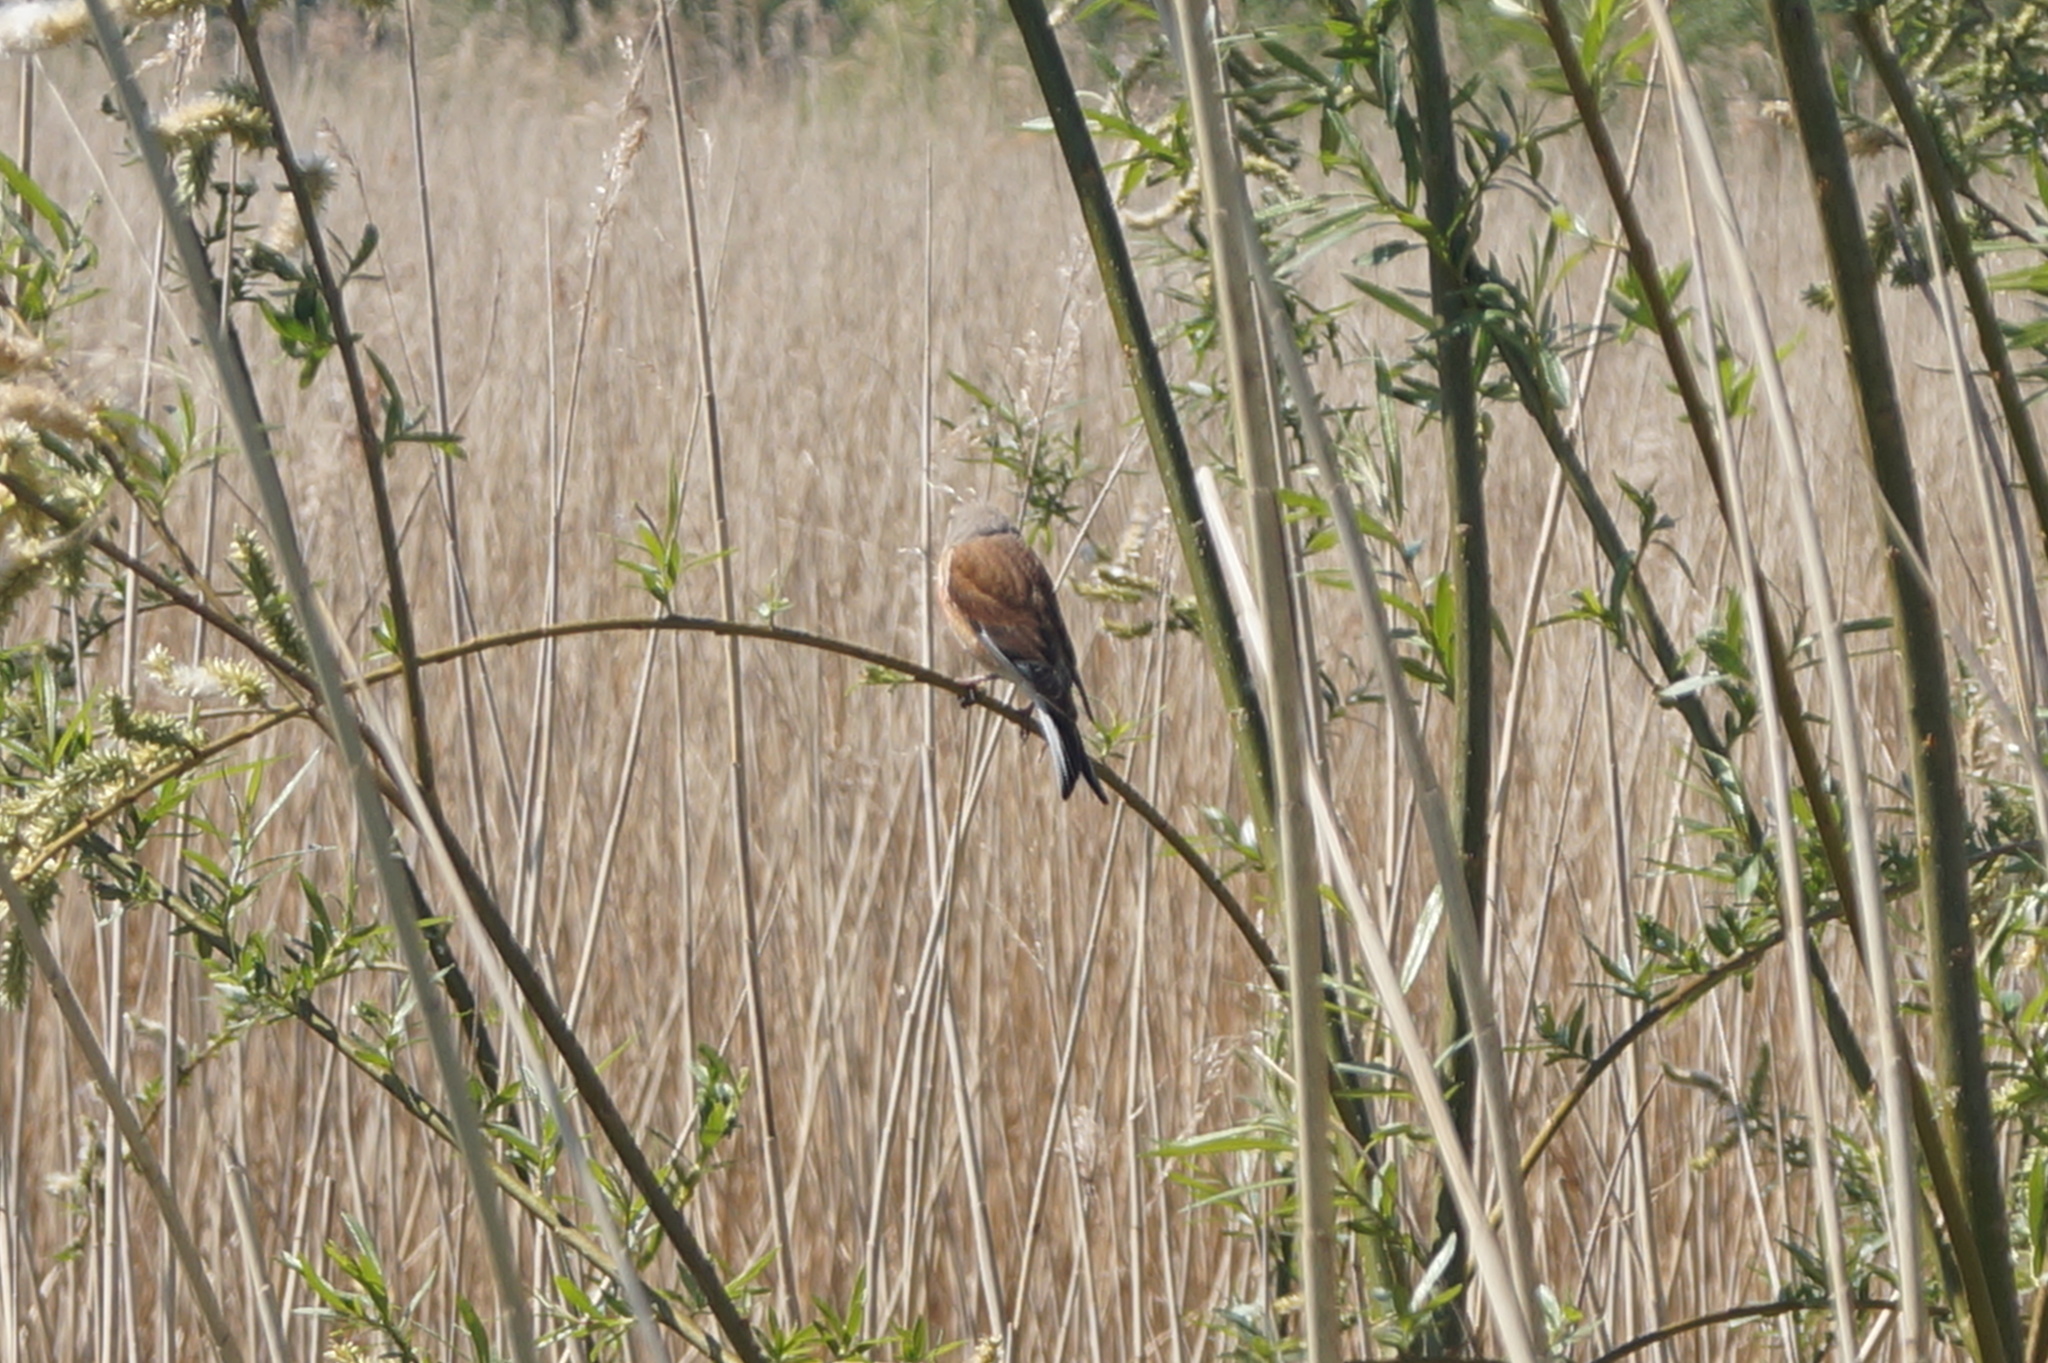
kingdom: Animalia
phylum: Chordata
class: Aves
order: Passeriformes
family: Fringillidae
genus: Linaria
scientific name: Linaria cannabina
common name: Common linnet
